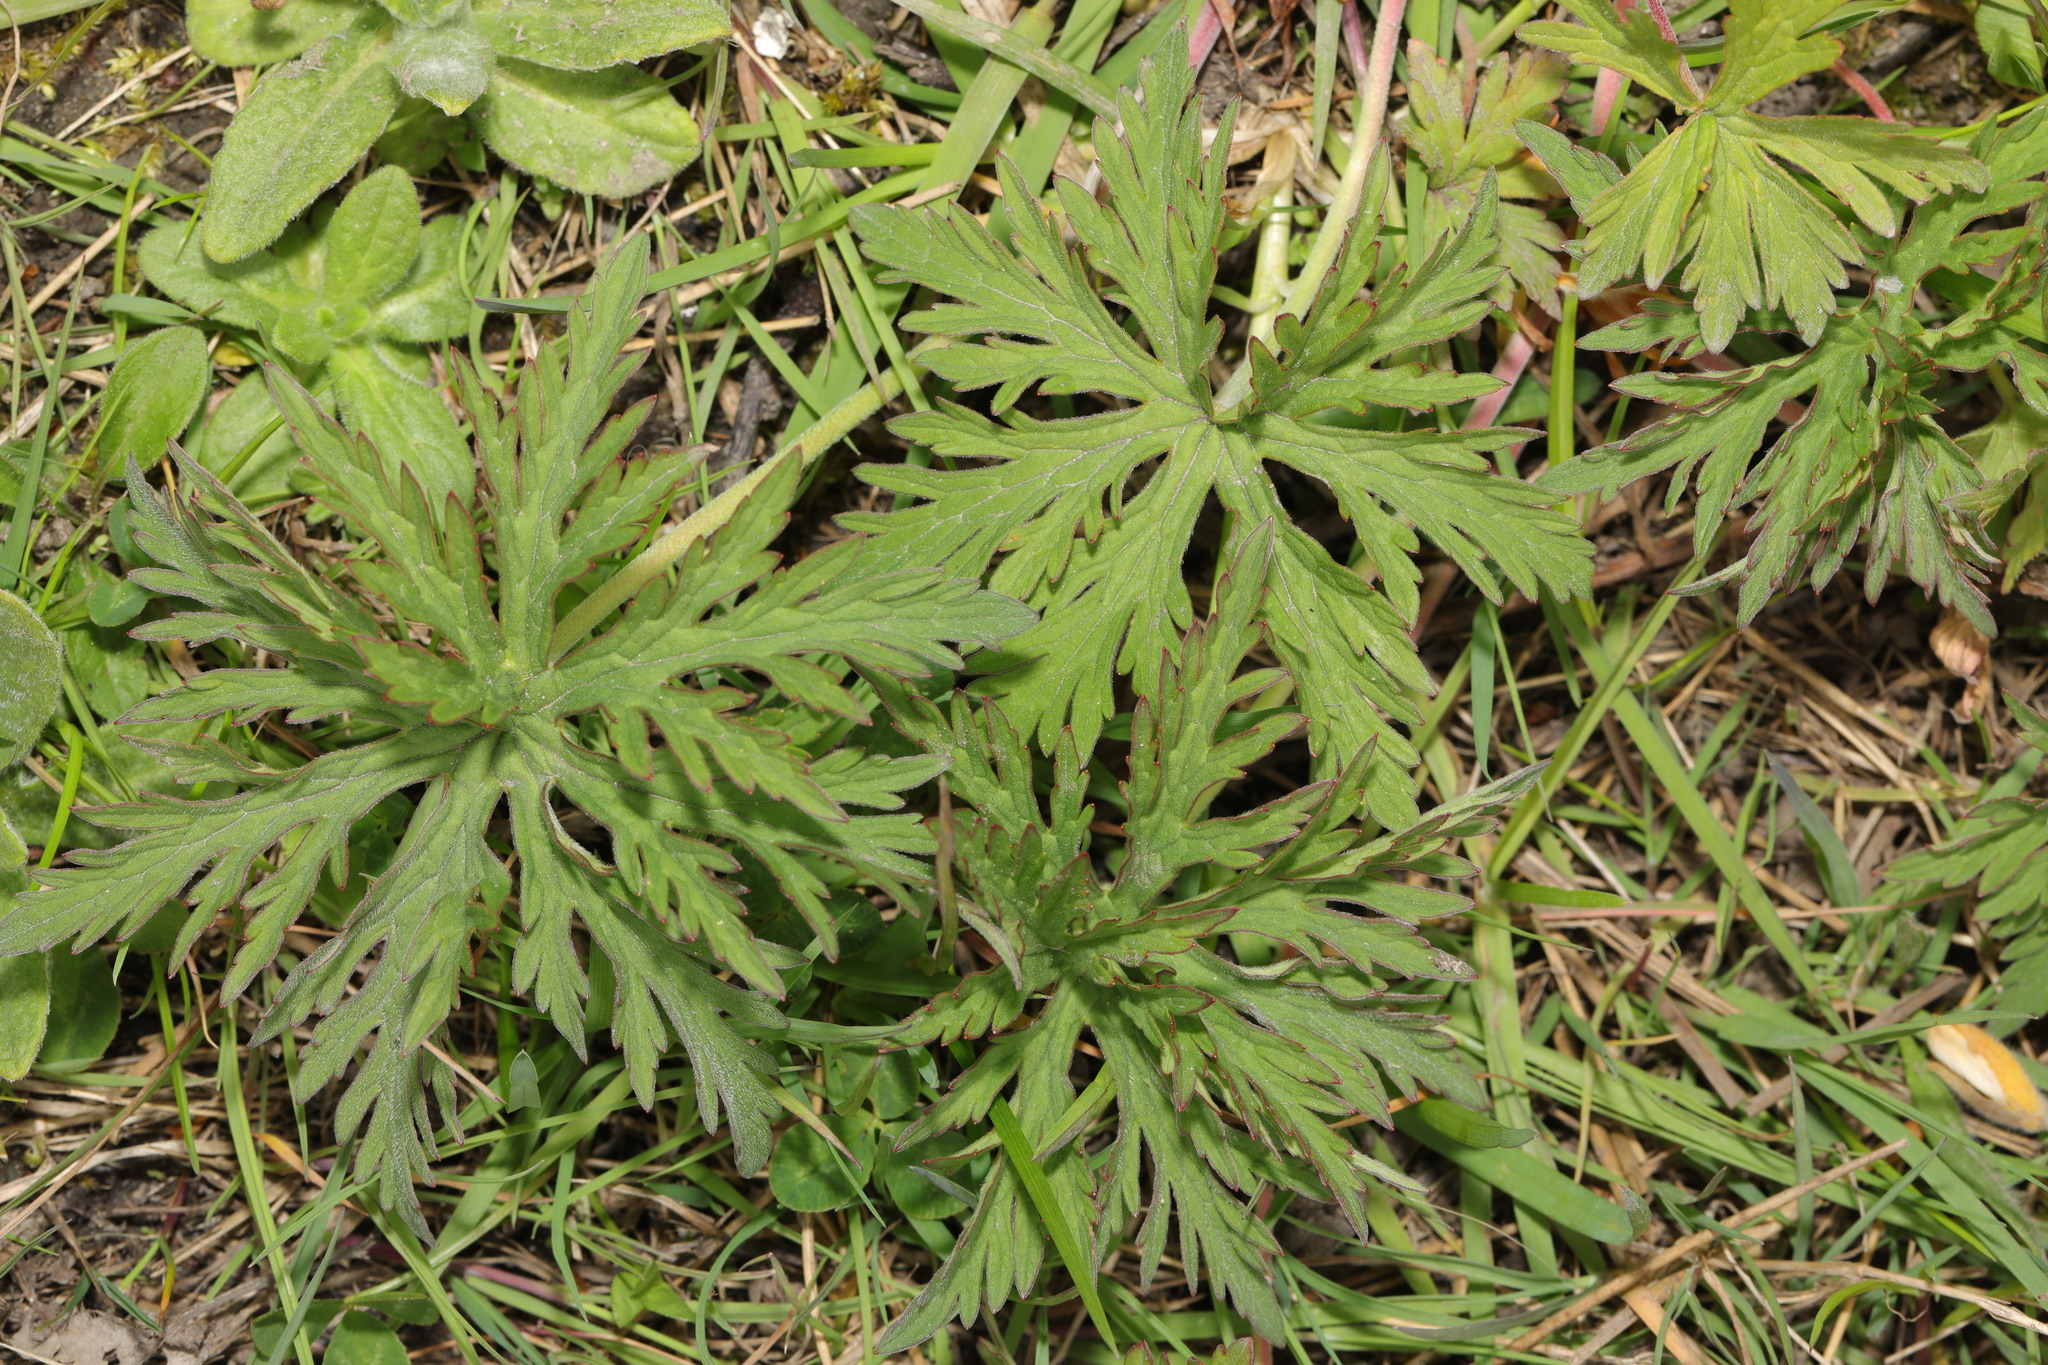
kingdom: Plantae
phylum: Tracheophyta
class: Magnoliopsida
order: Geraniales
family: Geraniaceae
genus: Geranium
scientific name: Geranium pratense
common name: Meadow crane's-bill
